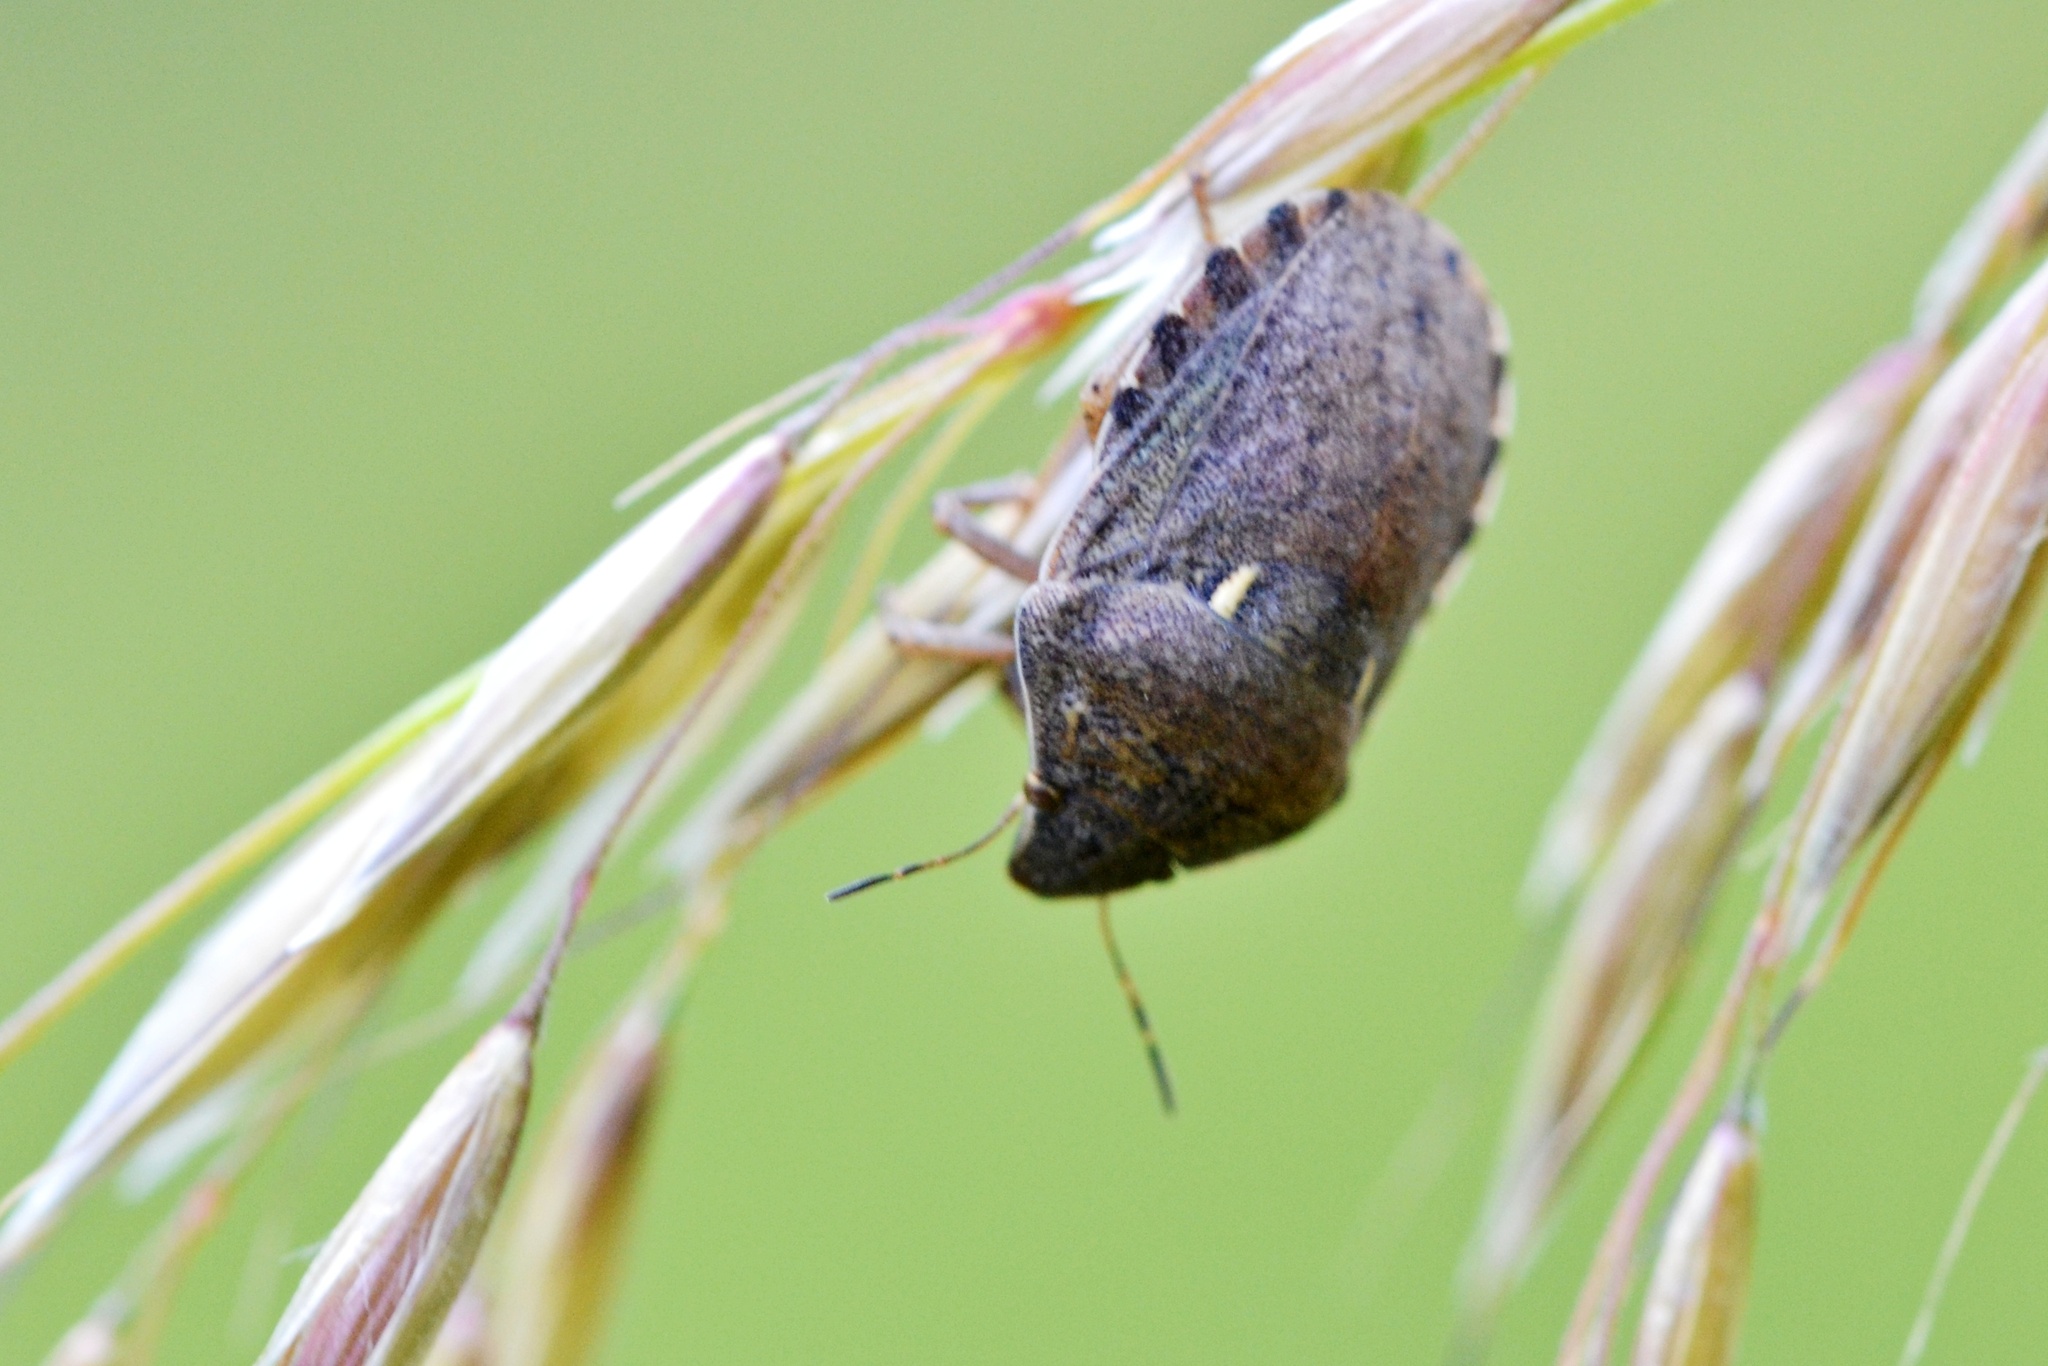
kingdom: Animalia
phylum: Arthropoda
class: Insecta
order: Hemiptera
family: Scutelleridae
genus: Eurygaster
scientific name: Eurygaster maura
